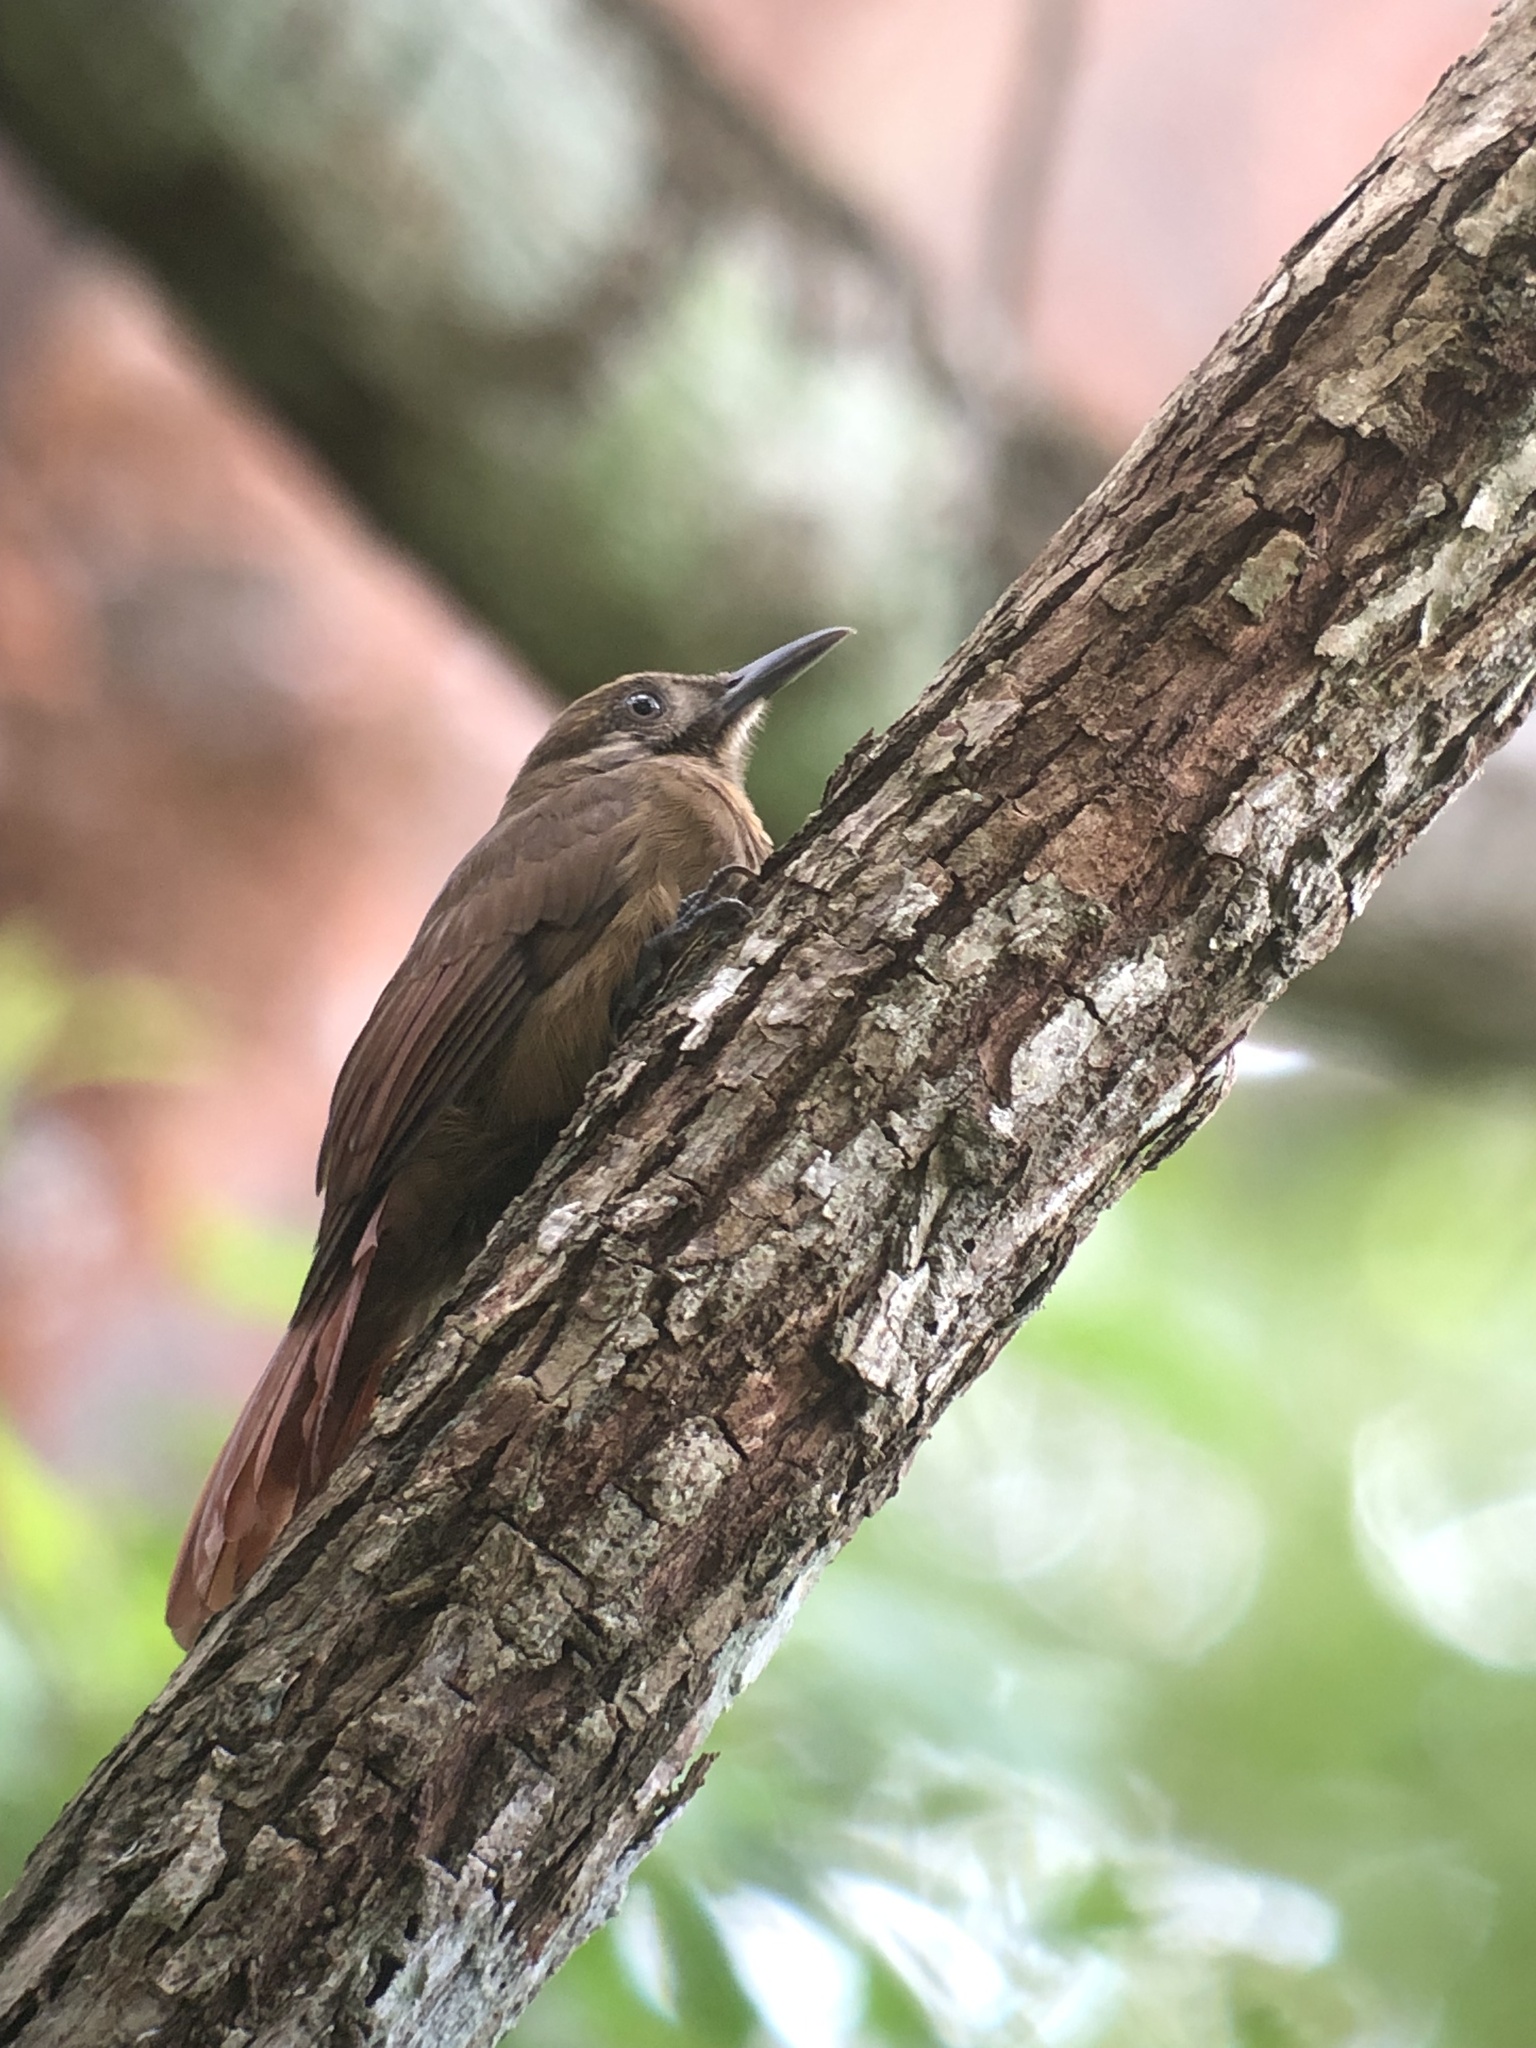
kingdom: Animalia
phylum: Chordata
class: Aves
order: Passeriformes
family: Furnariidae
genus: Dendrocincla
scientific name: Dendrocincla fuliginosa
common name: Plain-brown woodcreeper
